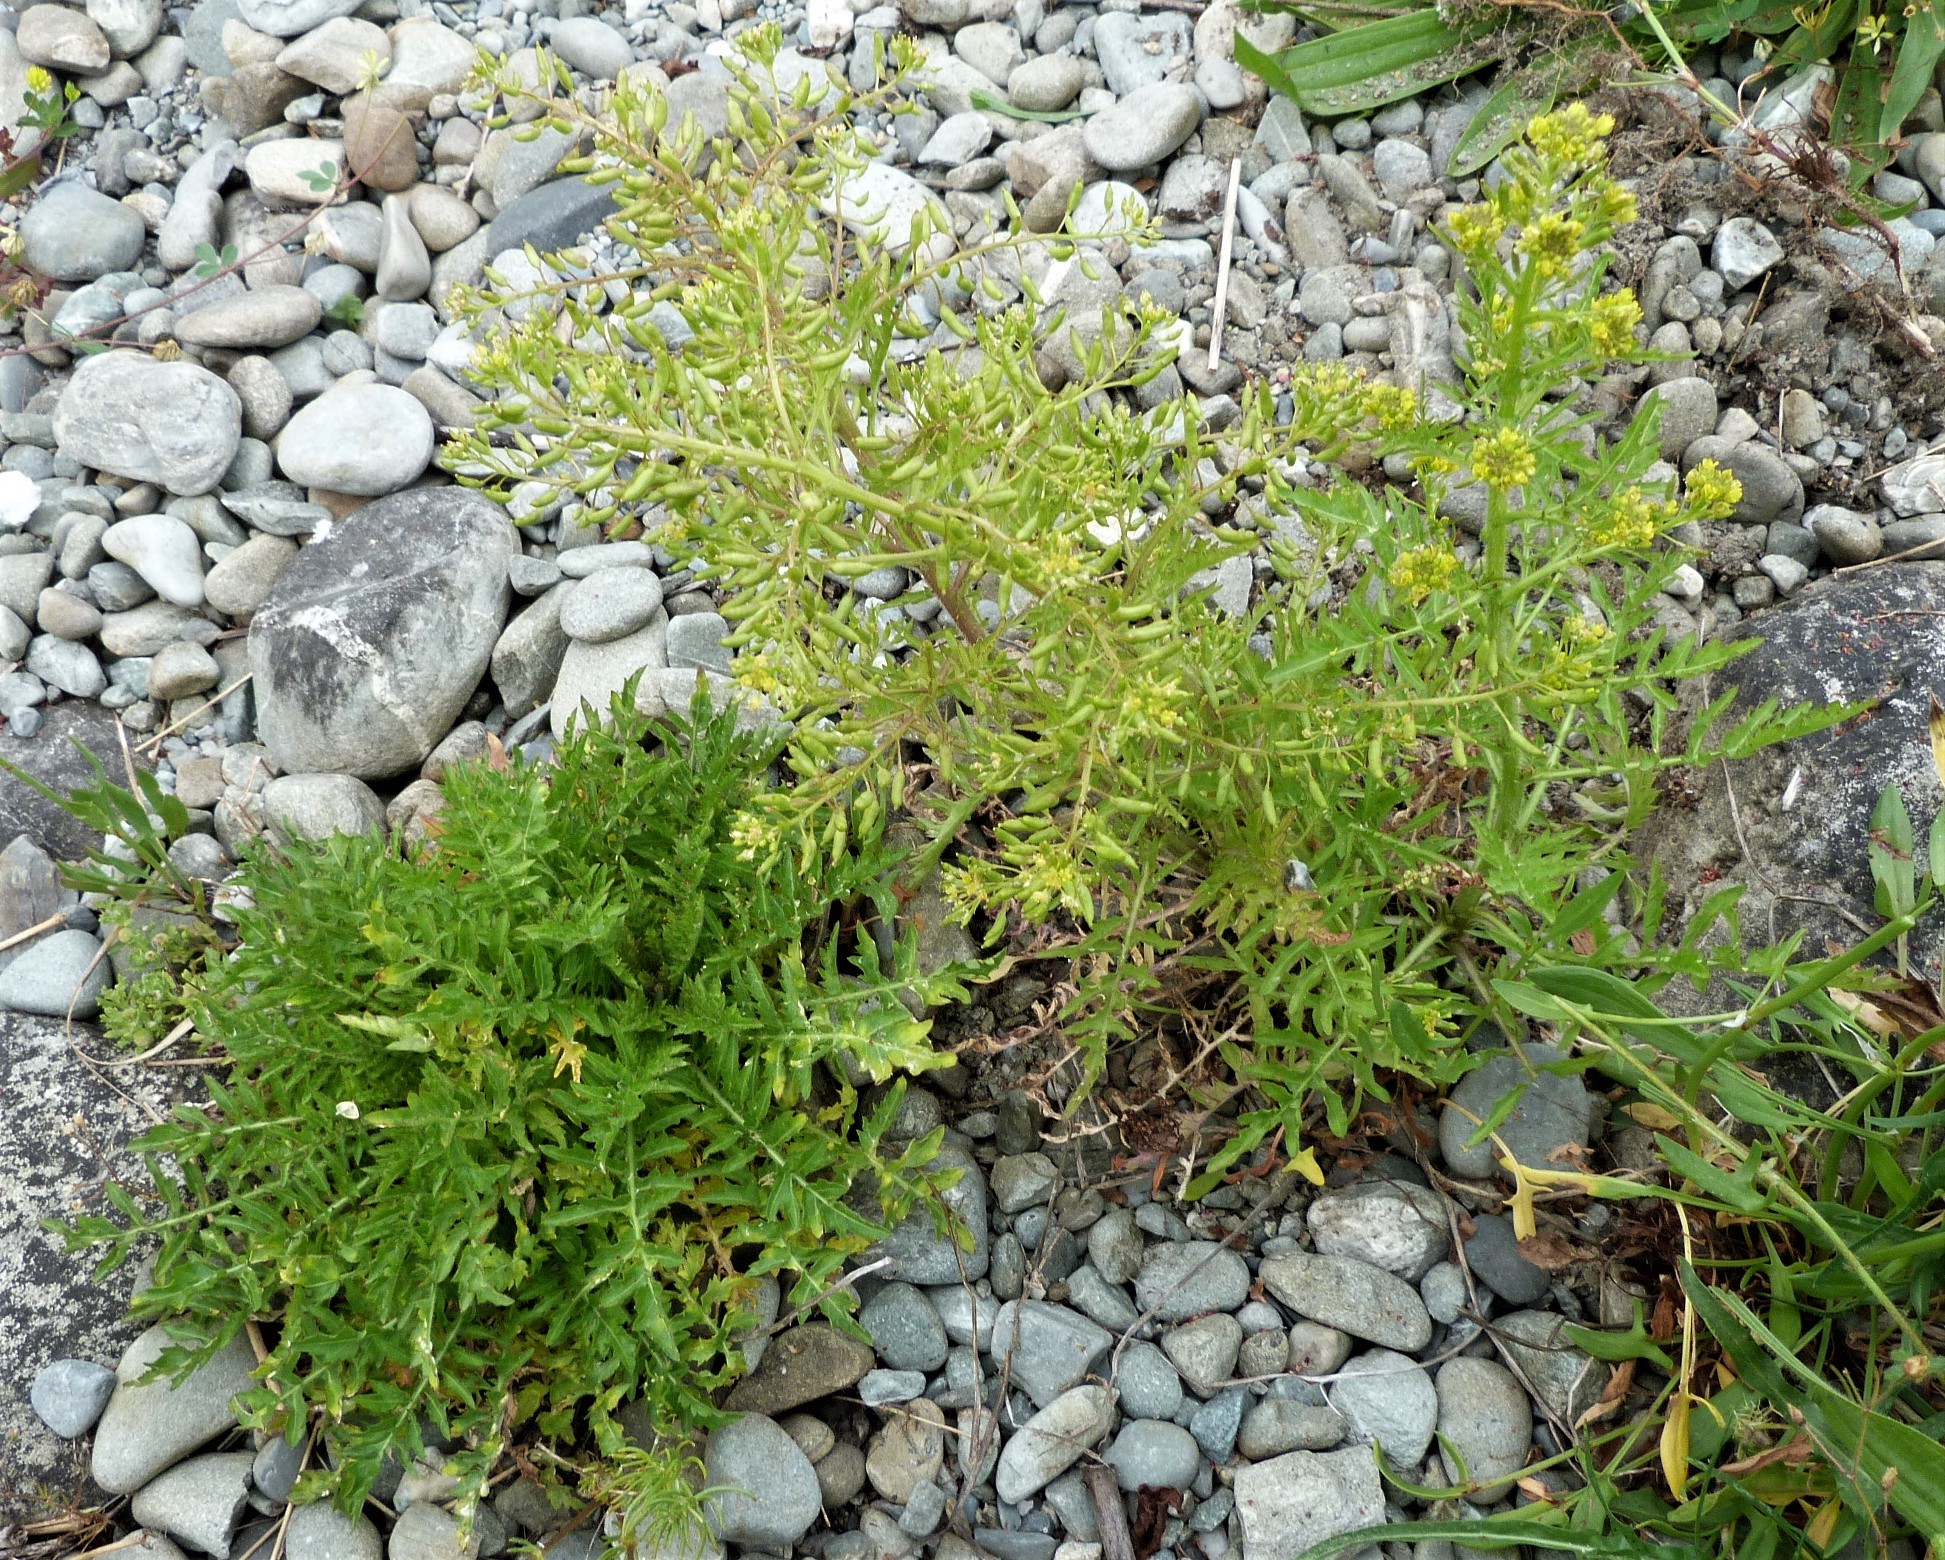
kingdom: Plantae
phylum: Tracheophyta
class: Magnoliopsida
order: Brassicales
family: Brassicaceae
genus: Rorippa
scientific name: Rorippa palustris
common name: Marsh yellow-cress
